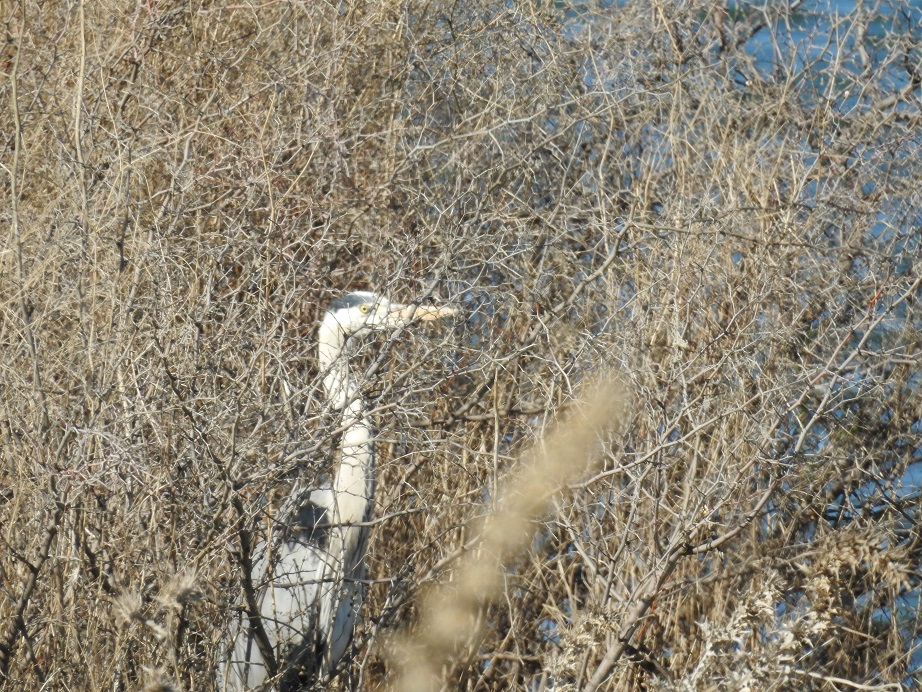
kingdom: Animalia
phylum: Chordata
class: Aves
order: Pelecaniformes
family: Ardeidae
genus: Ardea
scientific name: Ardea cinerea
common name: Grey heron
